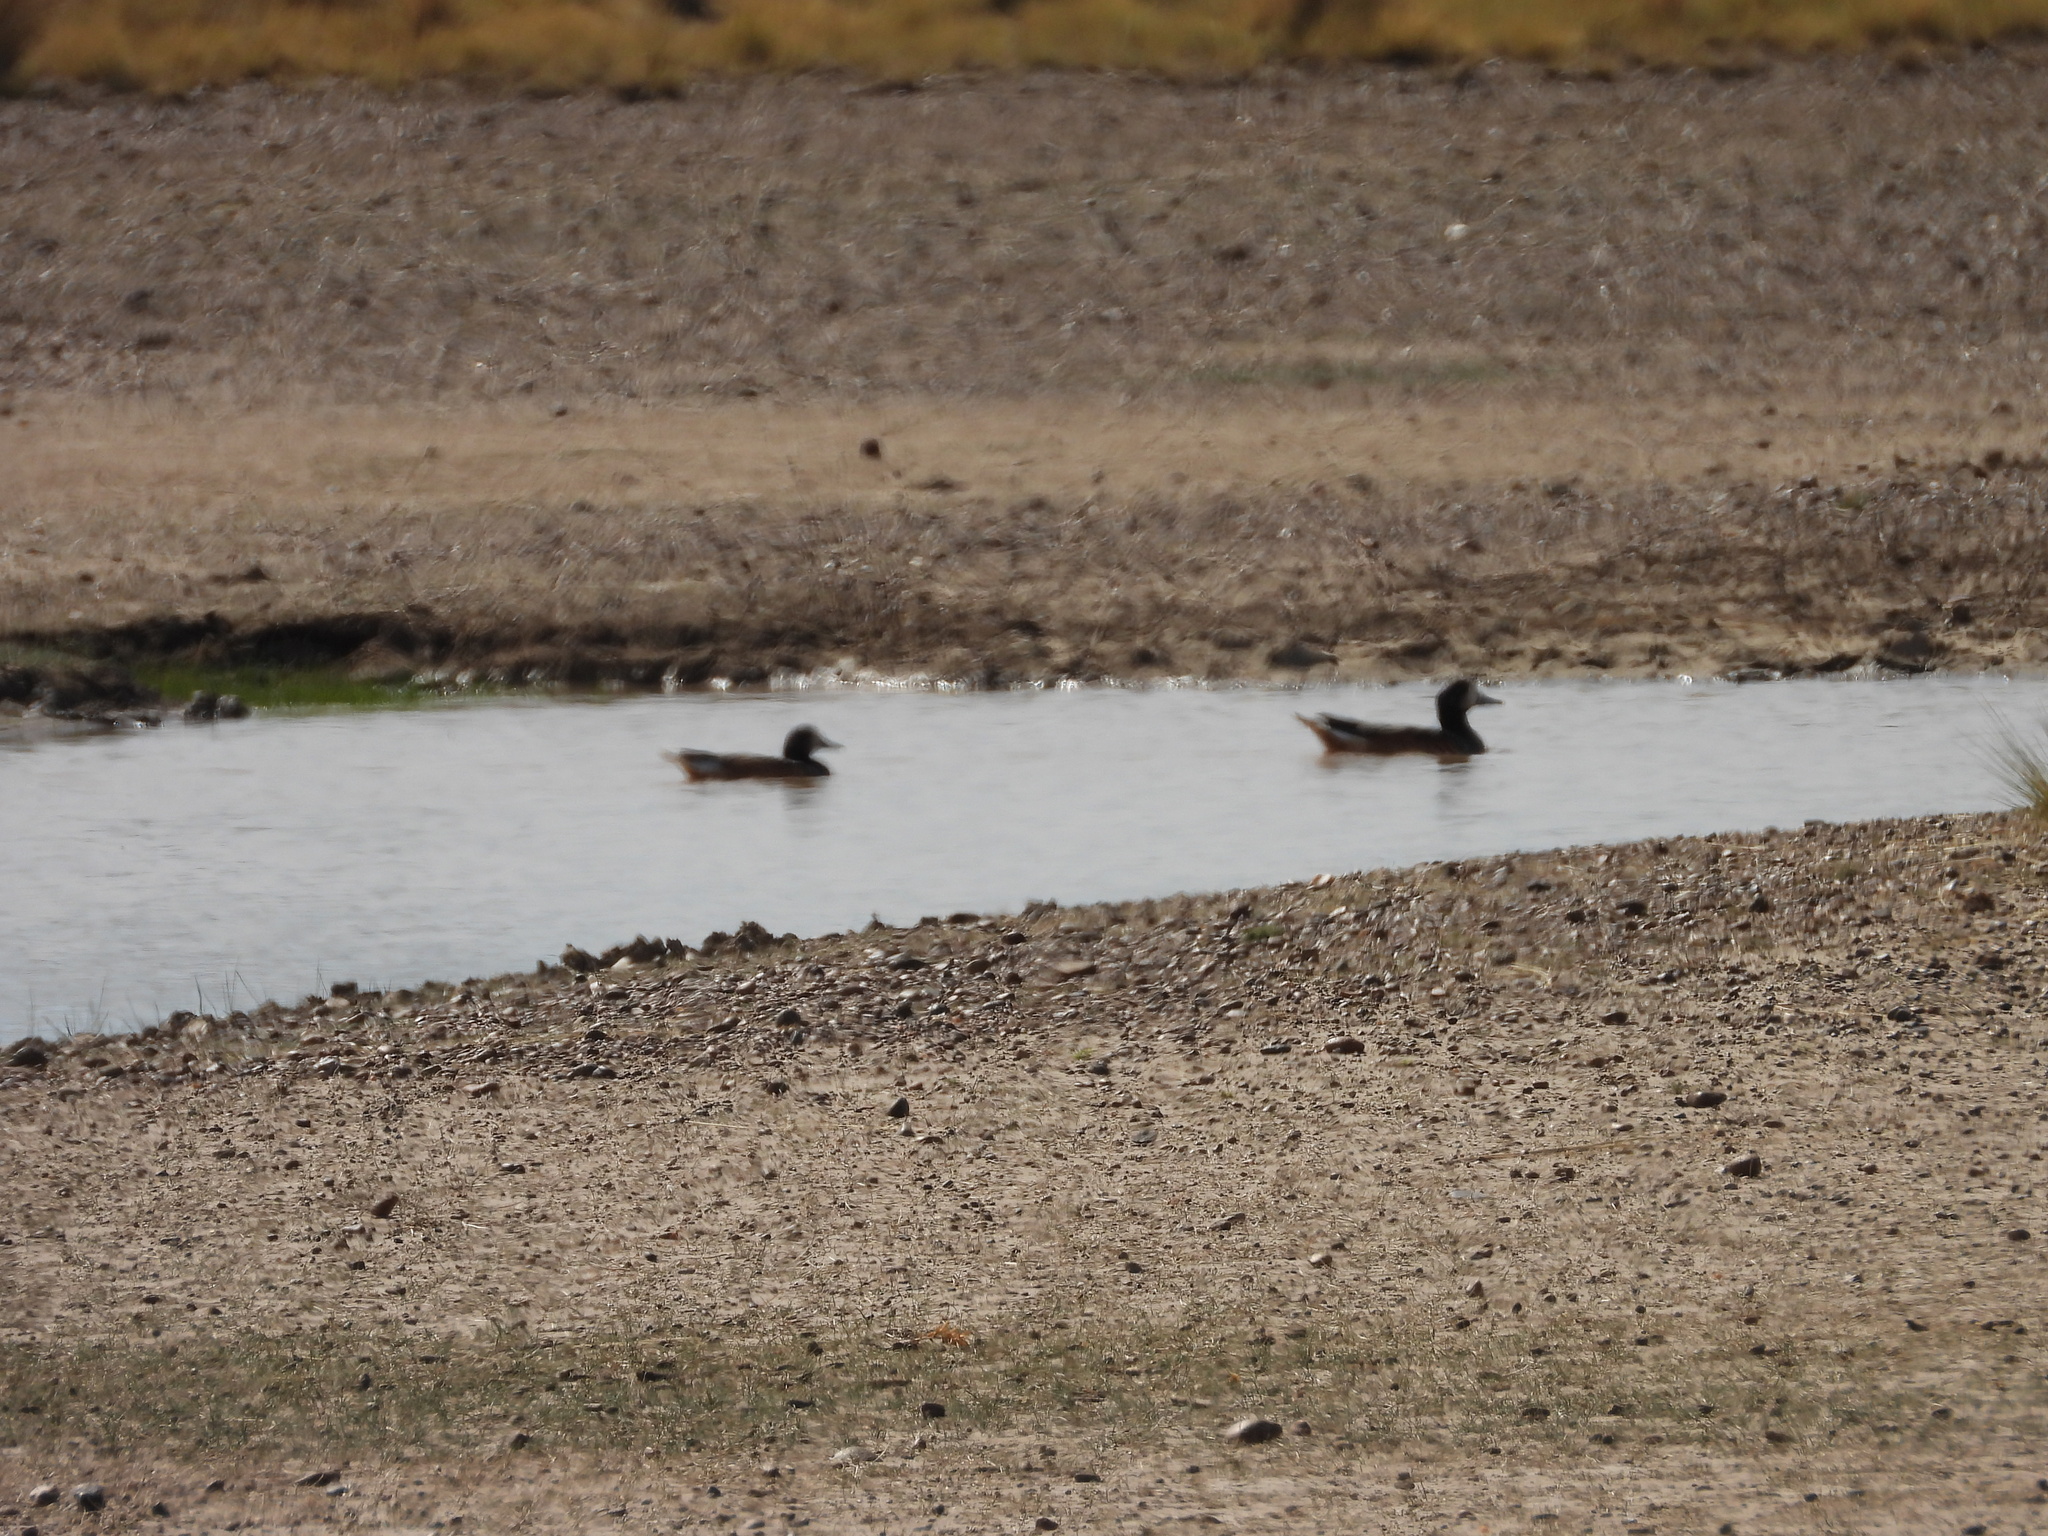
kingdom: Animalia
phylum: Chordata
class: Aves
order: Anseriformes
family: Anatidae
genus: Mareca
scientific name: Mareca sibilatrix
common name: Chiloe wigeon
